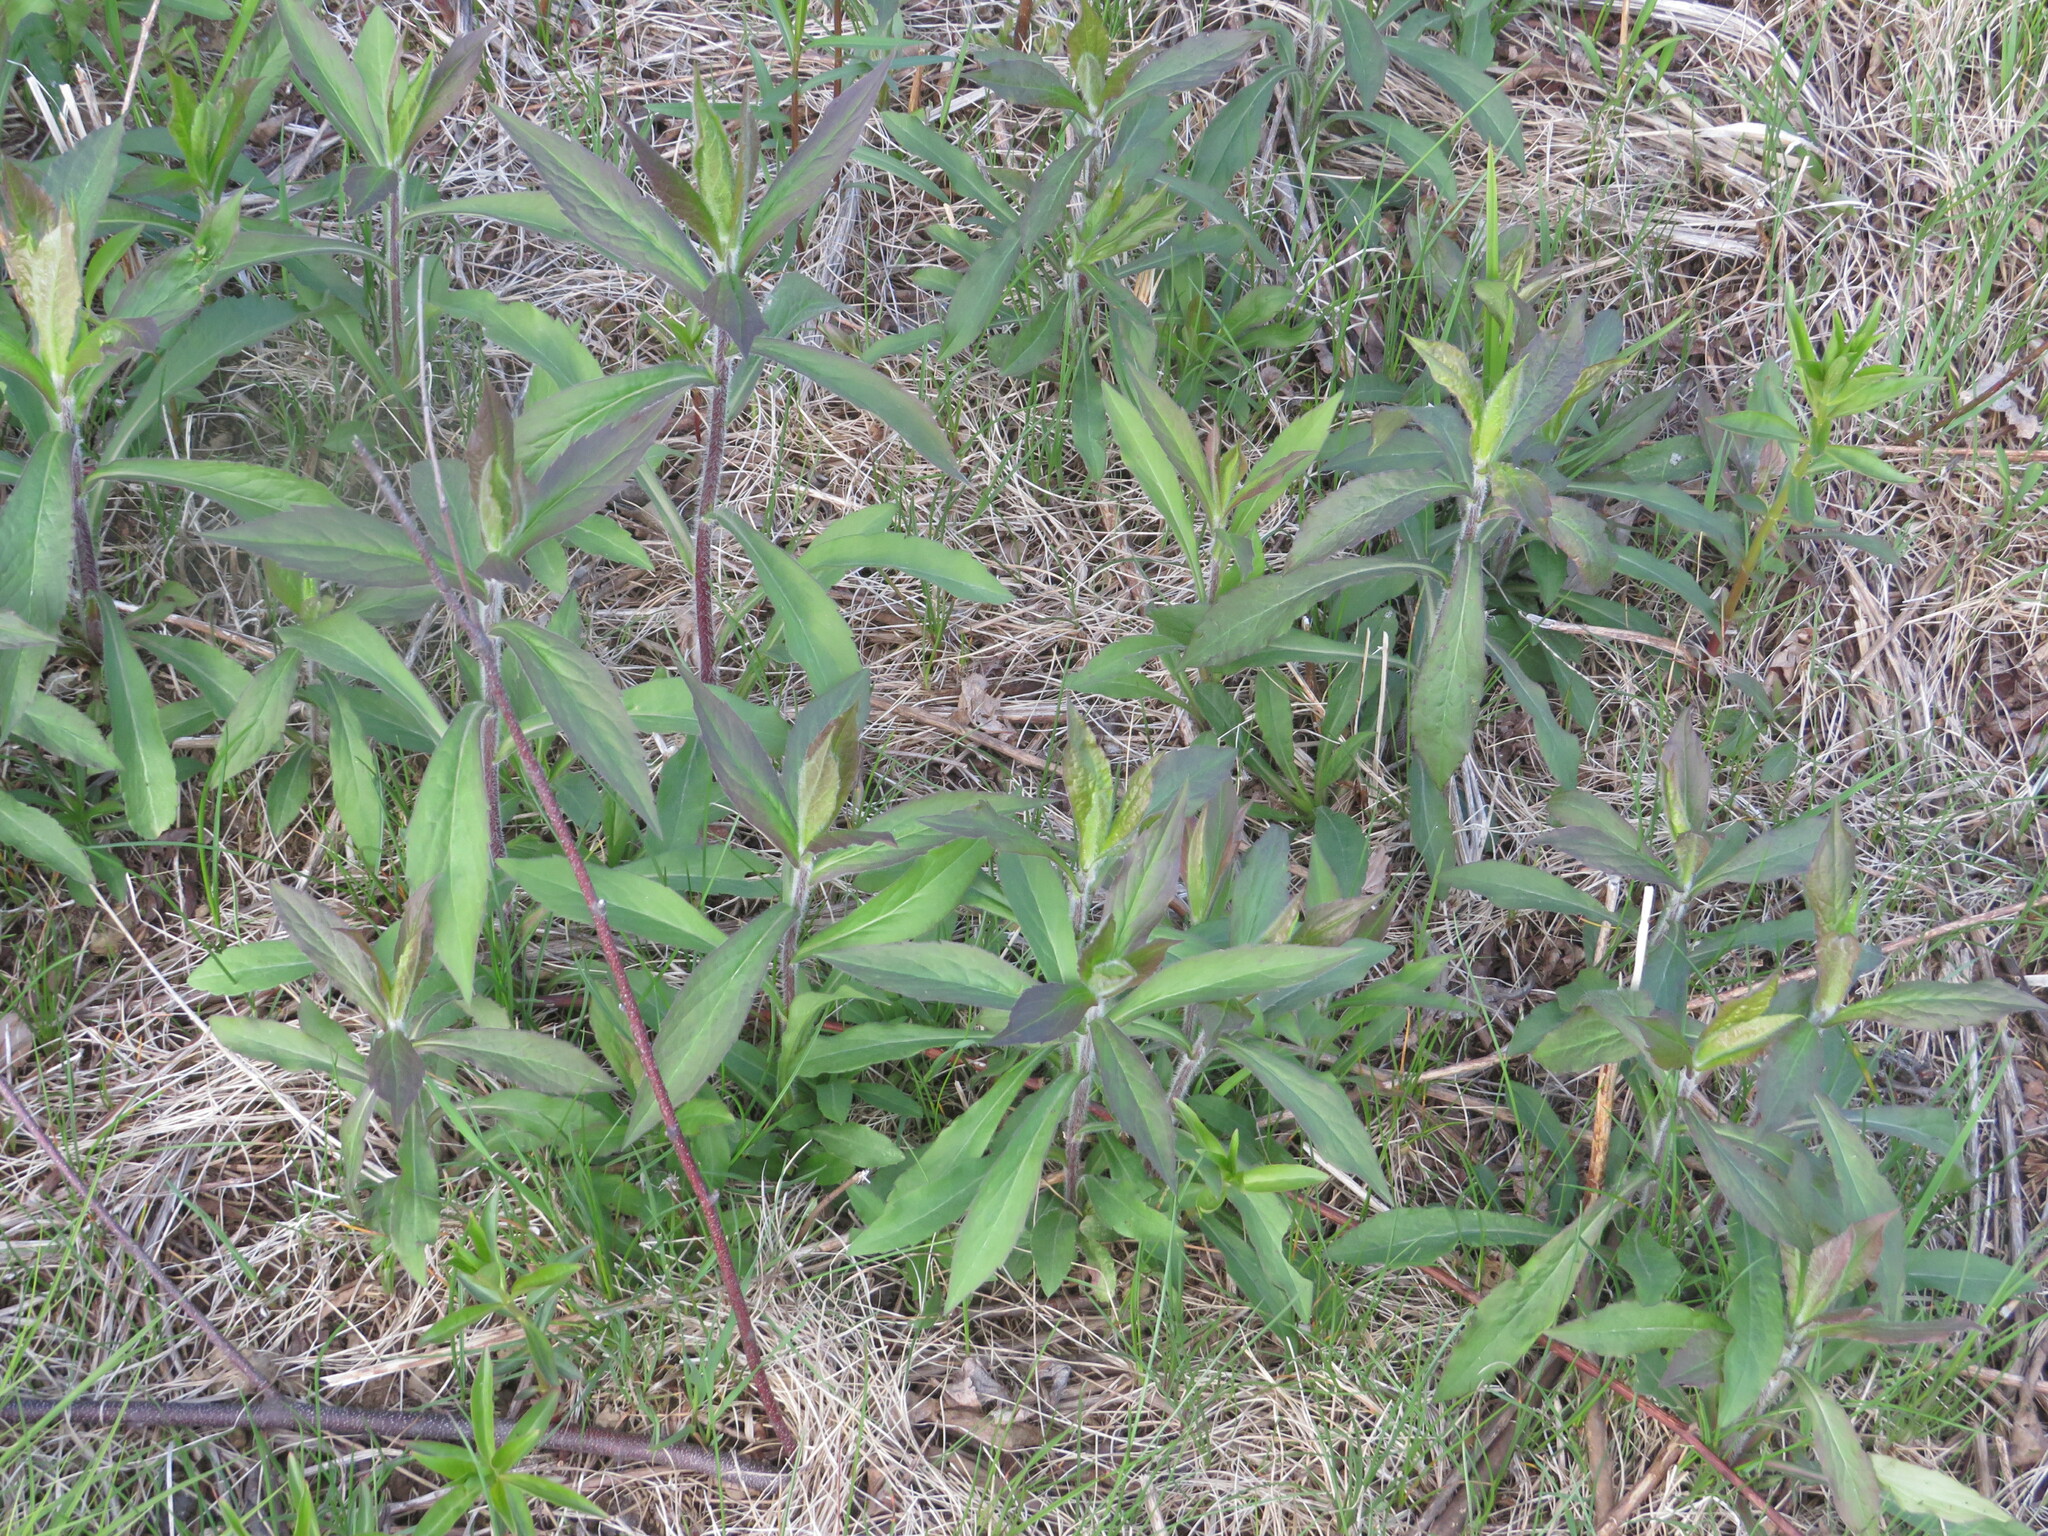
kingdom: Plantae
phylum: Tracheophyta
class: Magnoliopsida
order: Asterales
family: Asteraceae
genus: Solidago
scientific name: Solidago rugosa
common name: Rough-stemmed goldenrod
